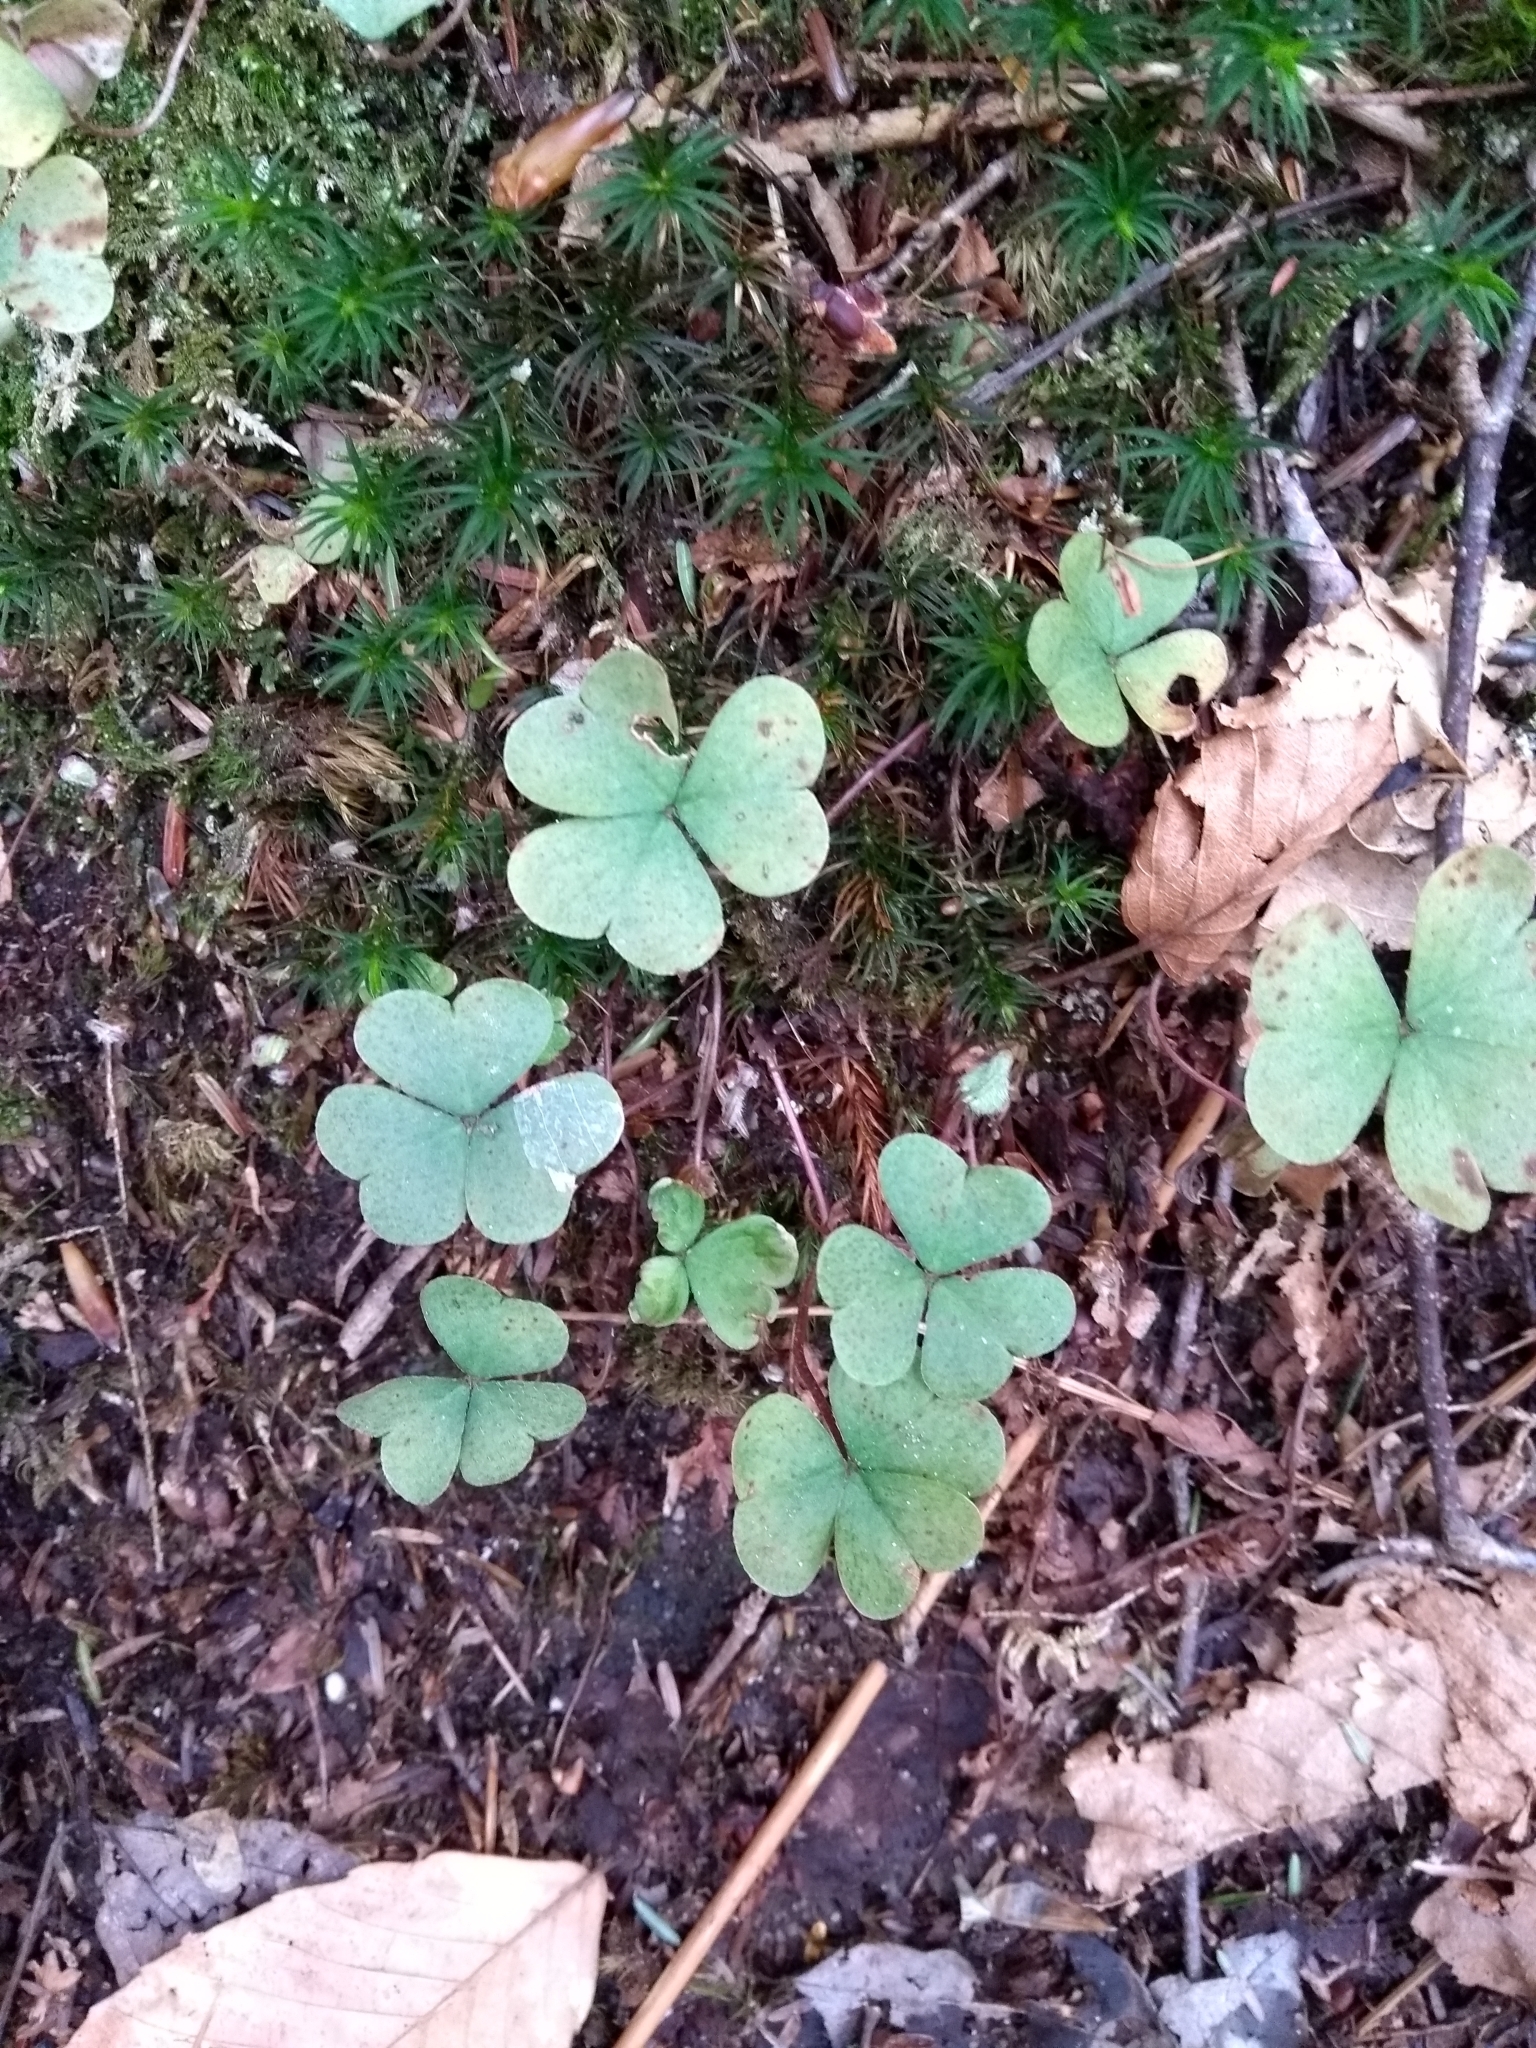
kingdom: Plantae
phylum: Tracheophyta
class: Magnoliopsida
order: Oxalidales
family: Oxalidaceae
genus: Oxalis
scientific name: Oxalis montana
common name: American wood-sorrel
